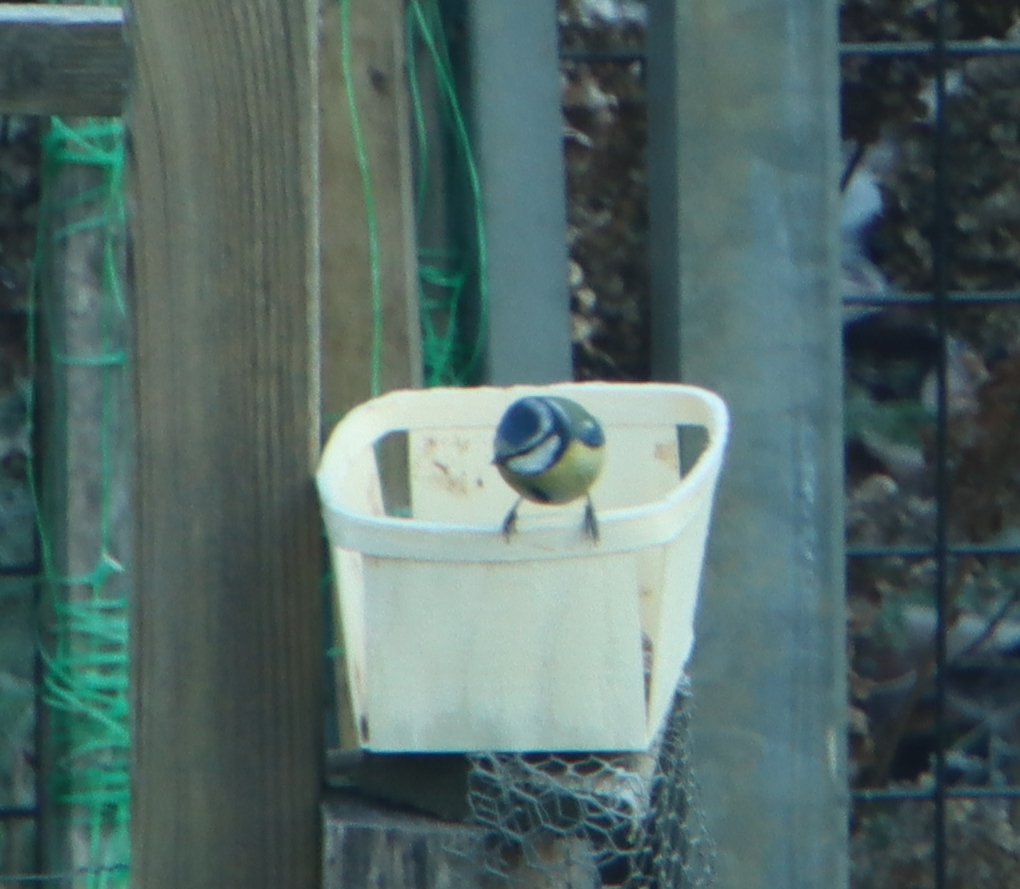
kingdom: Animalia
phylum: Chordata
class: Aves
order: Passeriformes
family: Paridae
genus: Cyanistes
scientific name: Cyanistes caeruleus
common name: Eurasian blue tit
